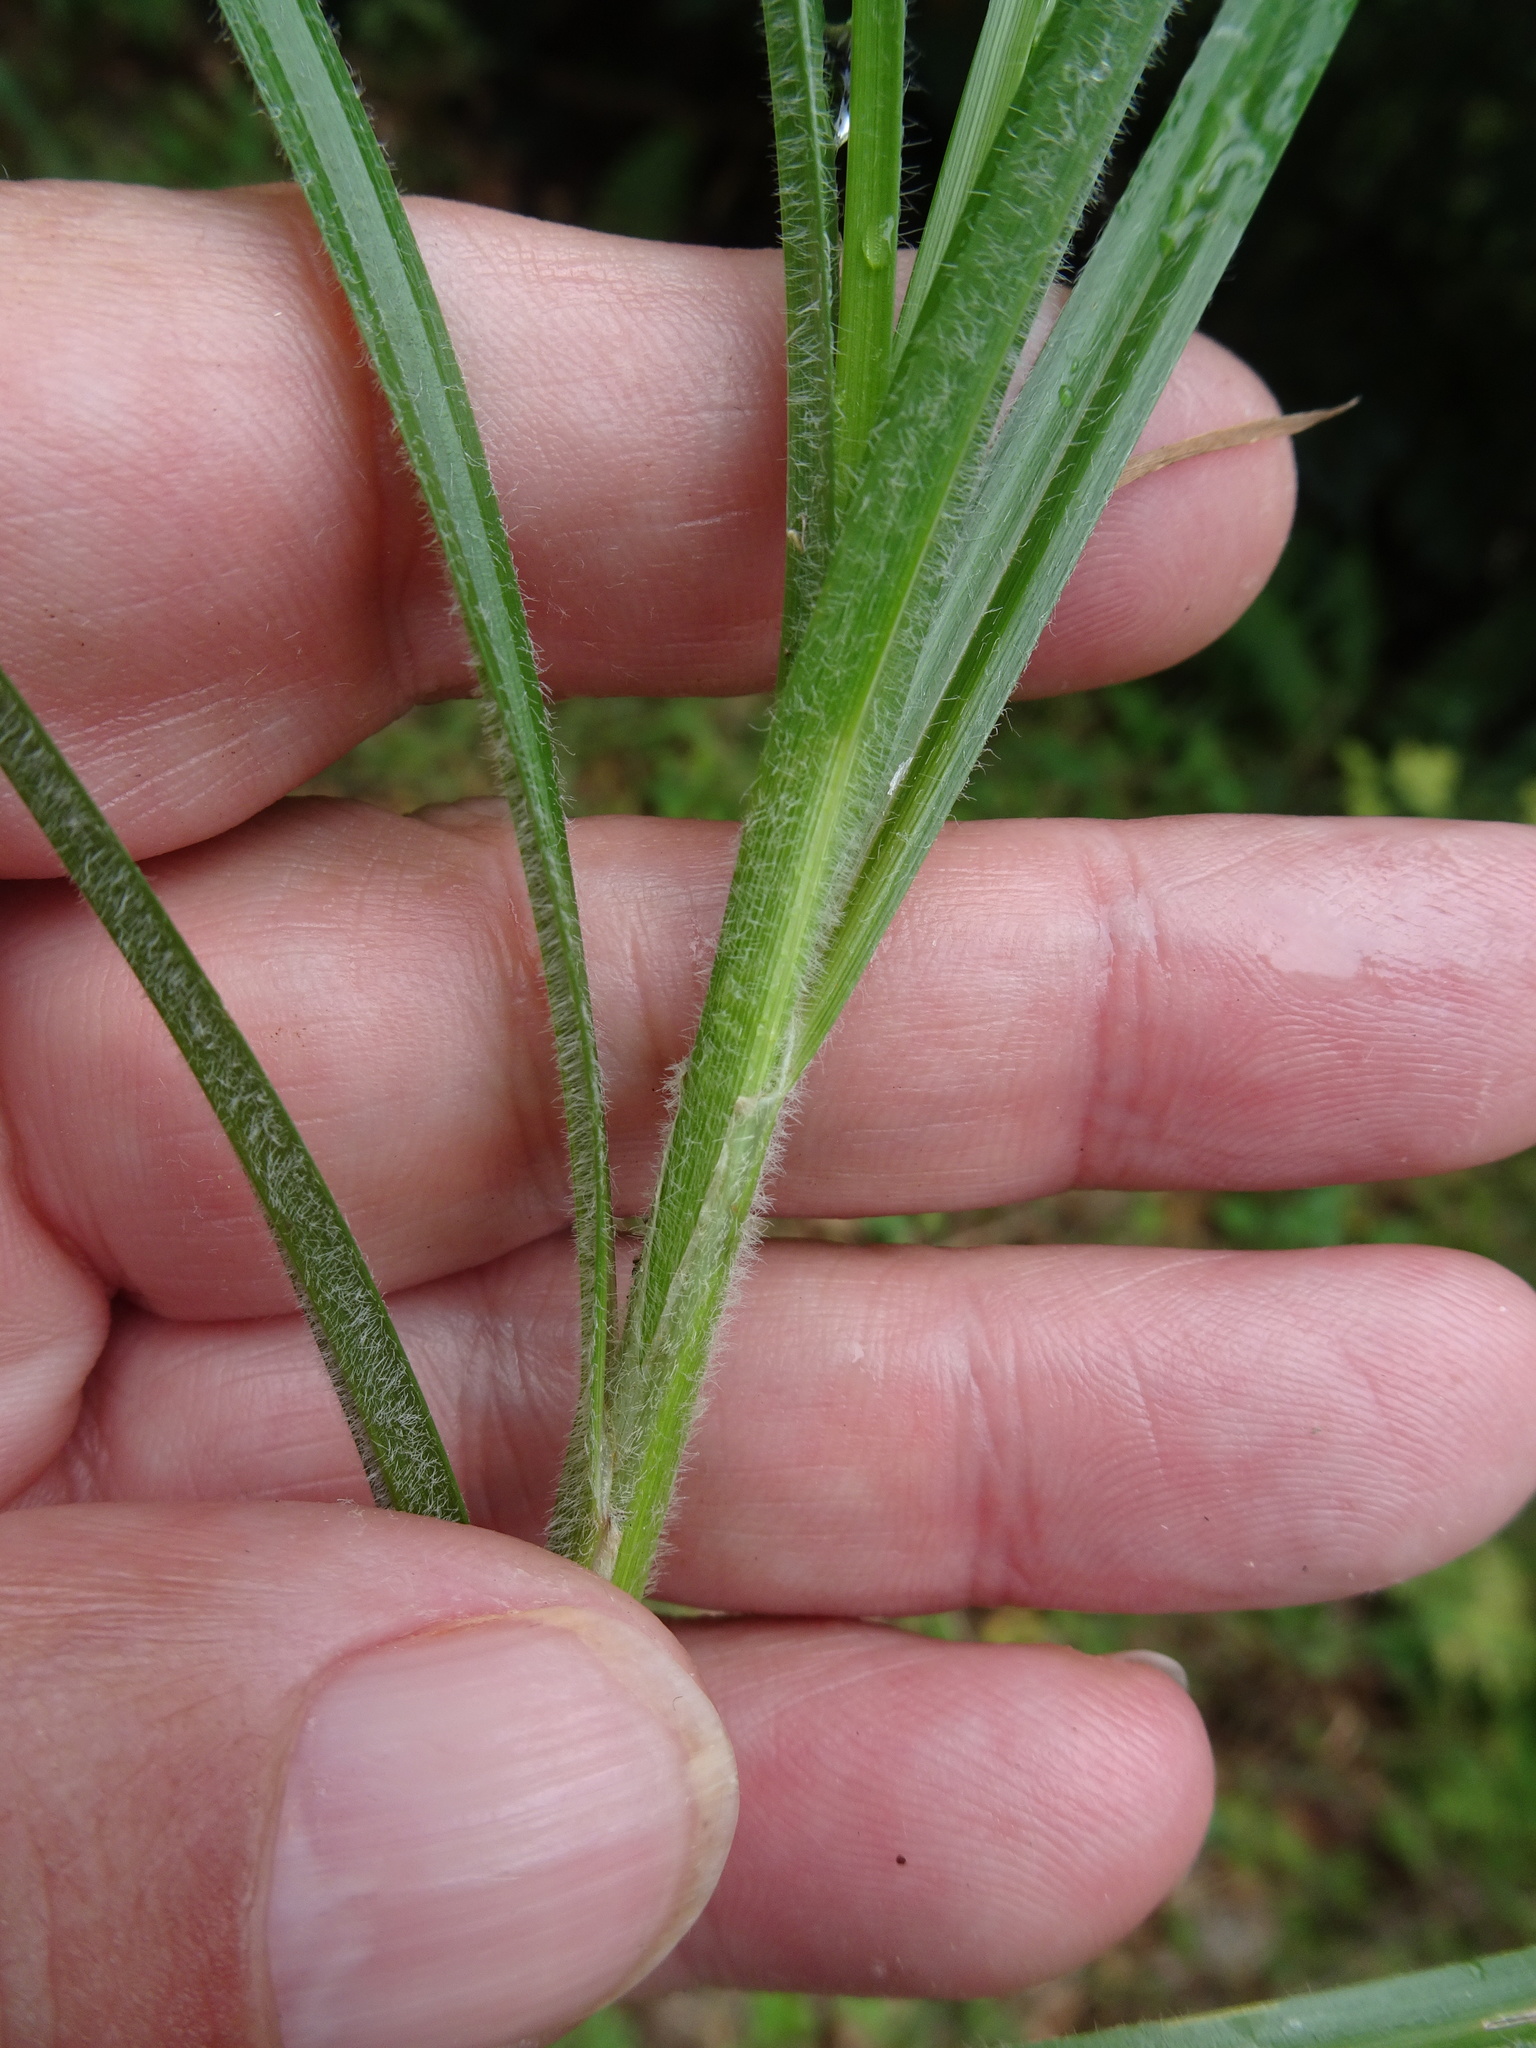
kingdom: Plantae
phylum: Tracheophyta
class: Liliopsida
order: Poales
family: Cyperaceae
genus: Carex
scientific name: Carex hirta
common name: Hairy sedge
